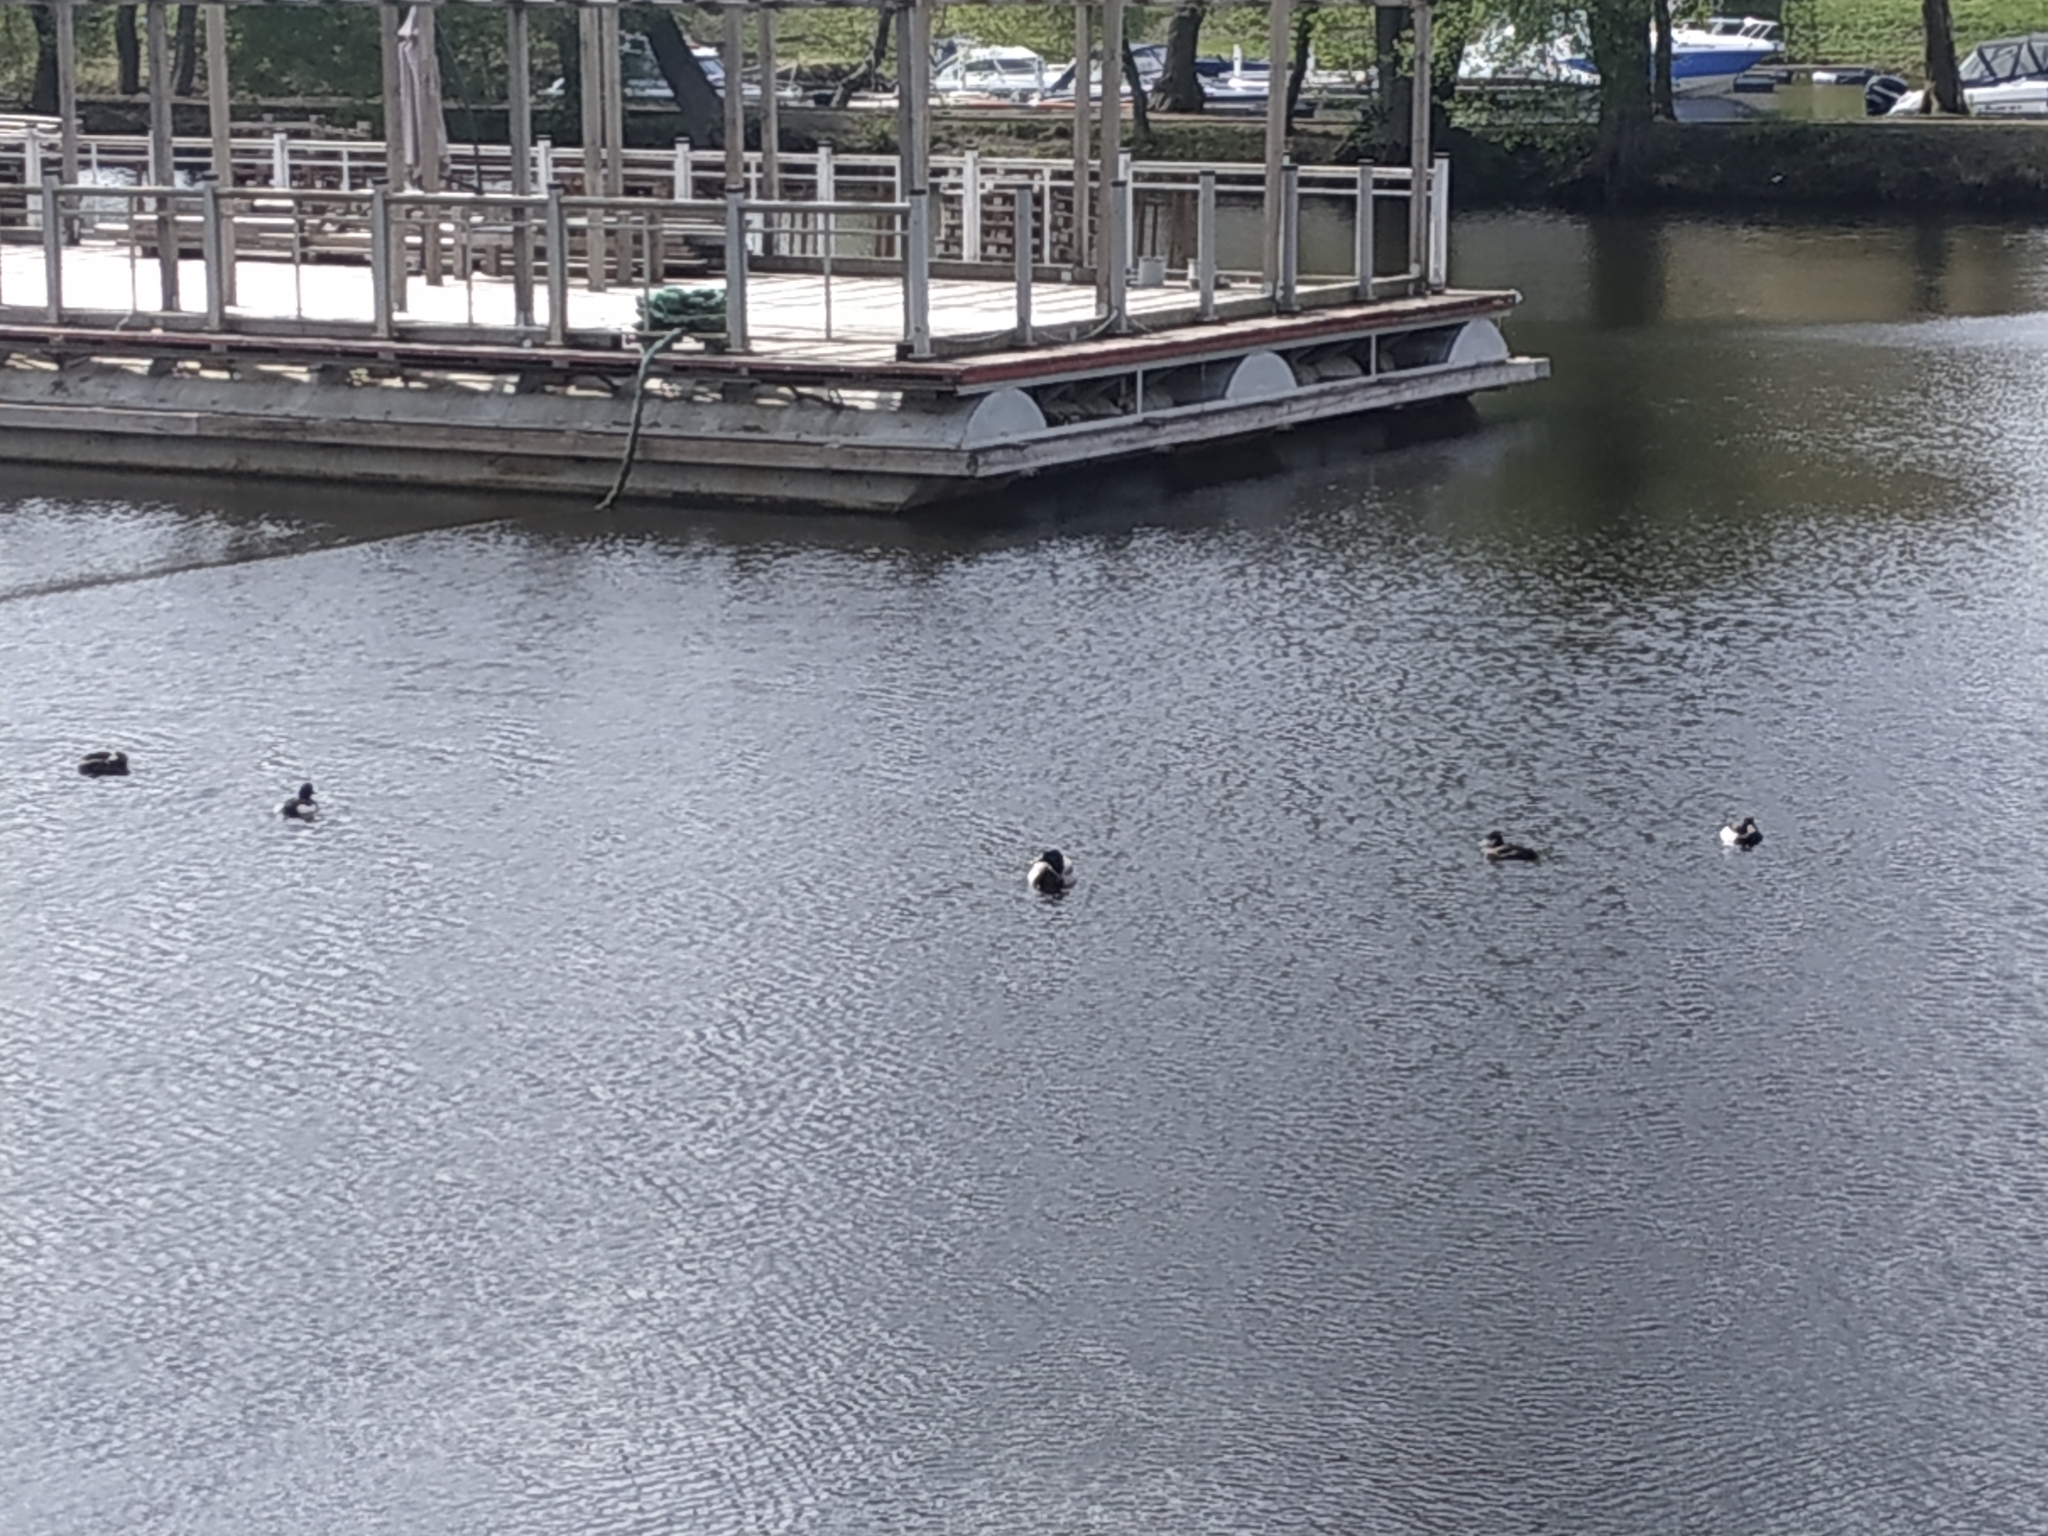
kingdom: Animalia
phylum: Chordata
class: Aves
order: Anseriformes
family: Anatidae
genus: Aythya
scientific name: Aythya fuligula
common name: Tufted duck
